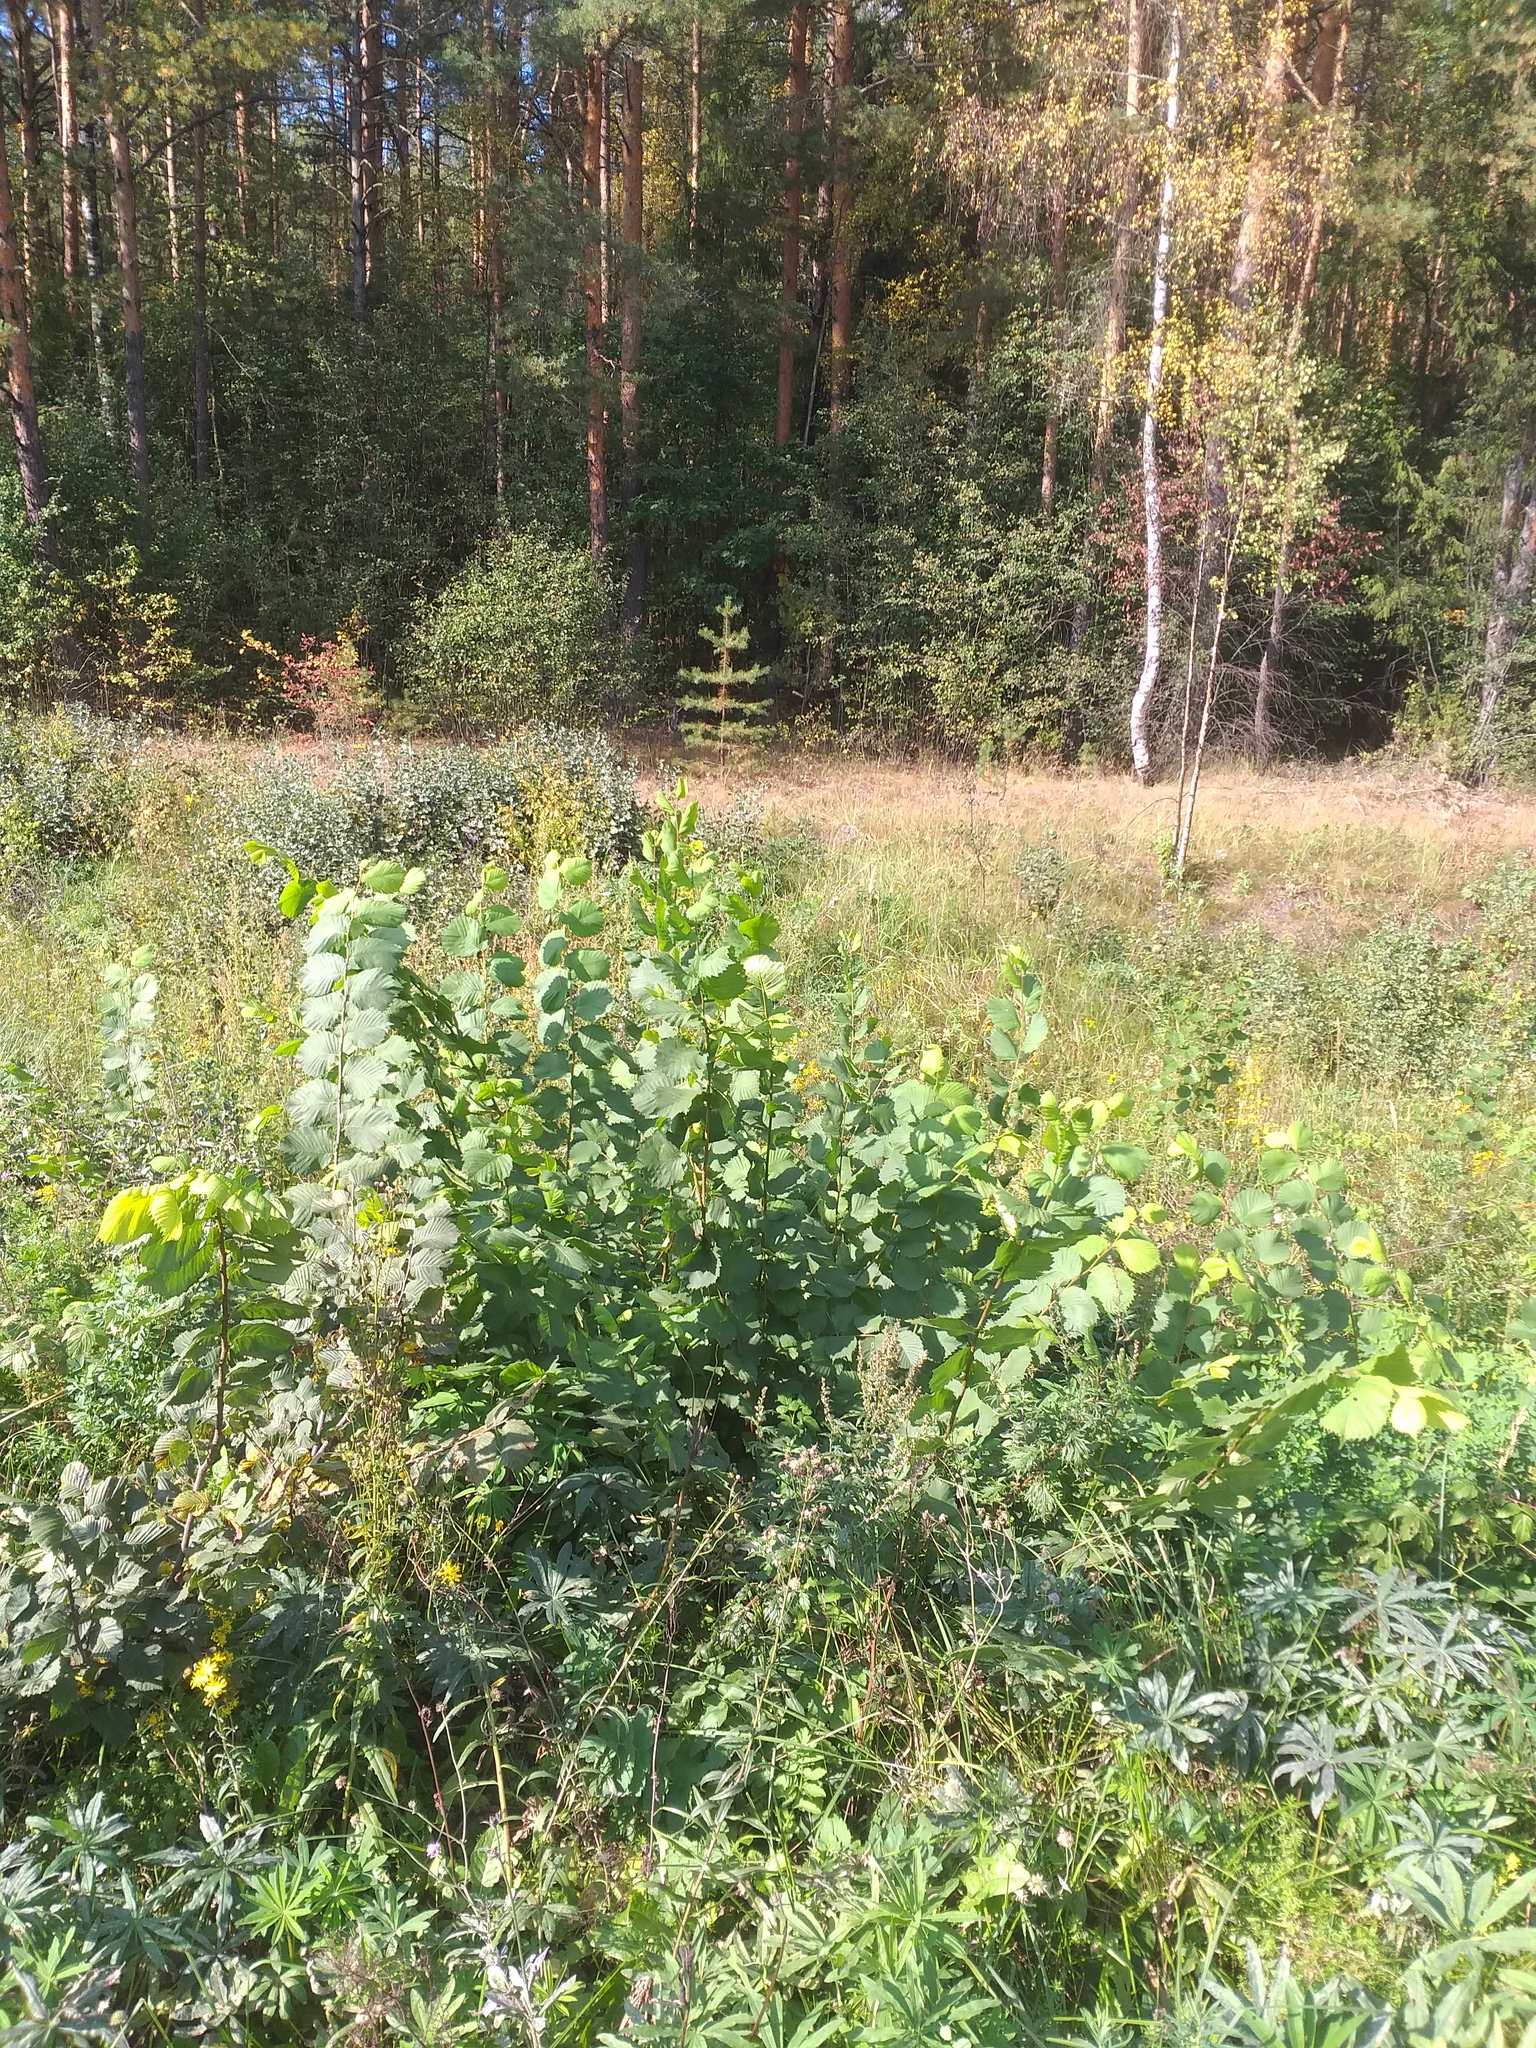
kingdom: Plantae
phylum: Tracheophyta
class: Magnoliopsida
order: Rosales
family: Ulmaceae
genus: Ulmus
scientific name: Ulmus laevis
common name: European white-elm
